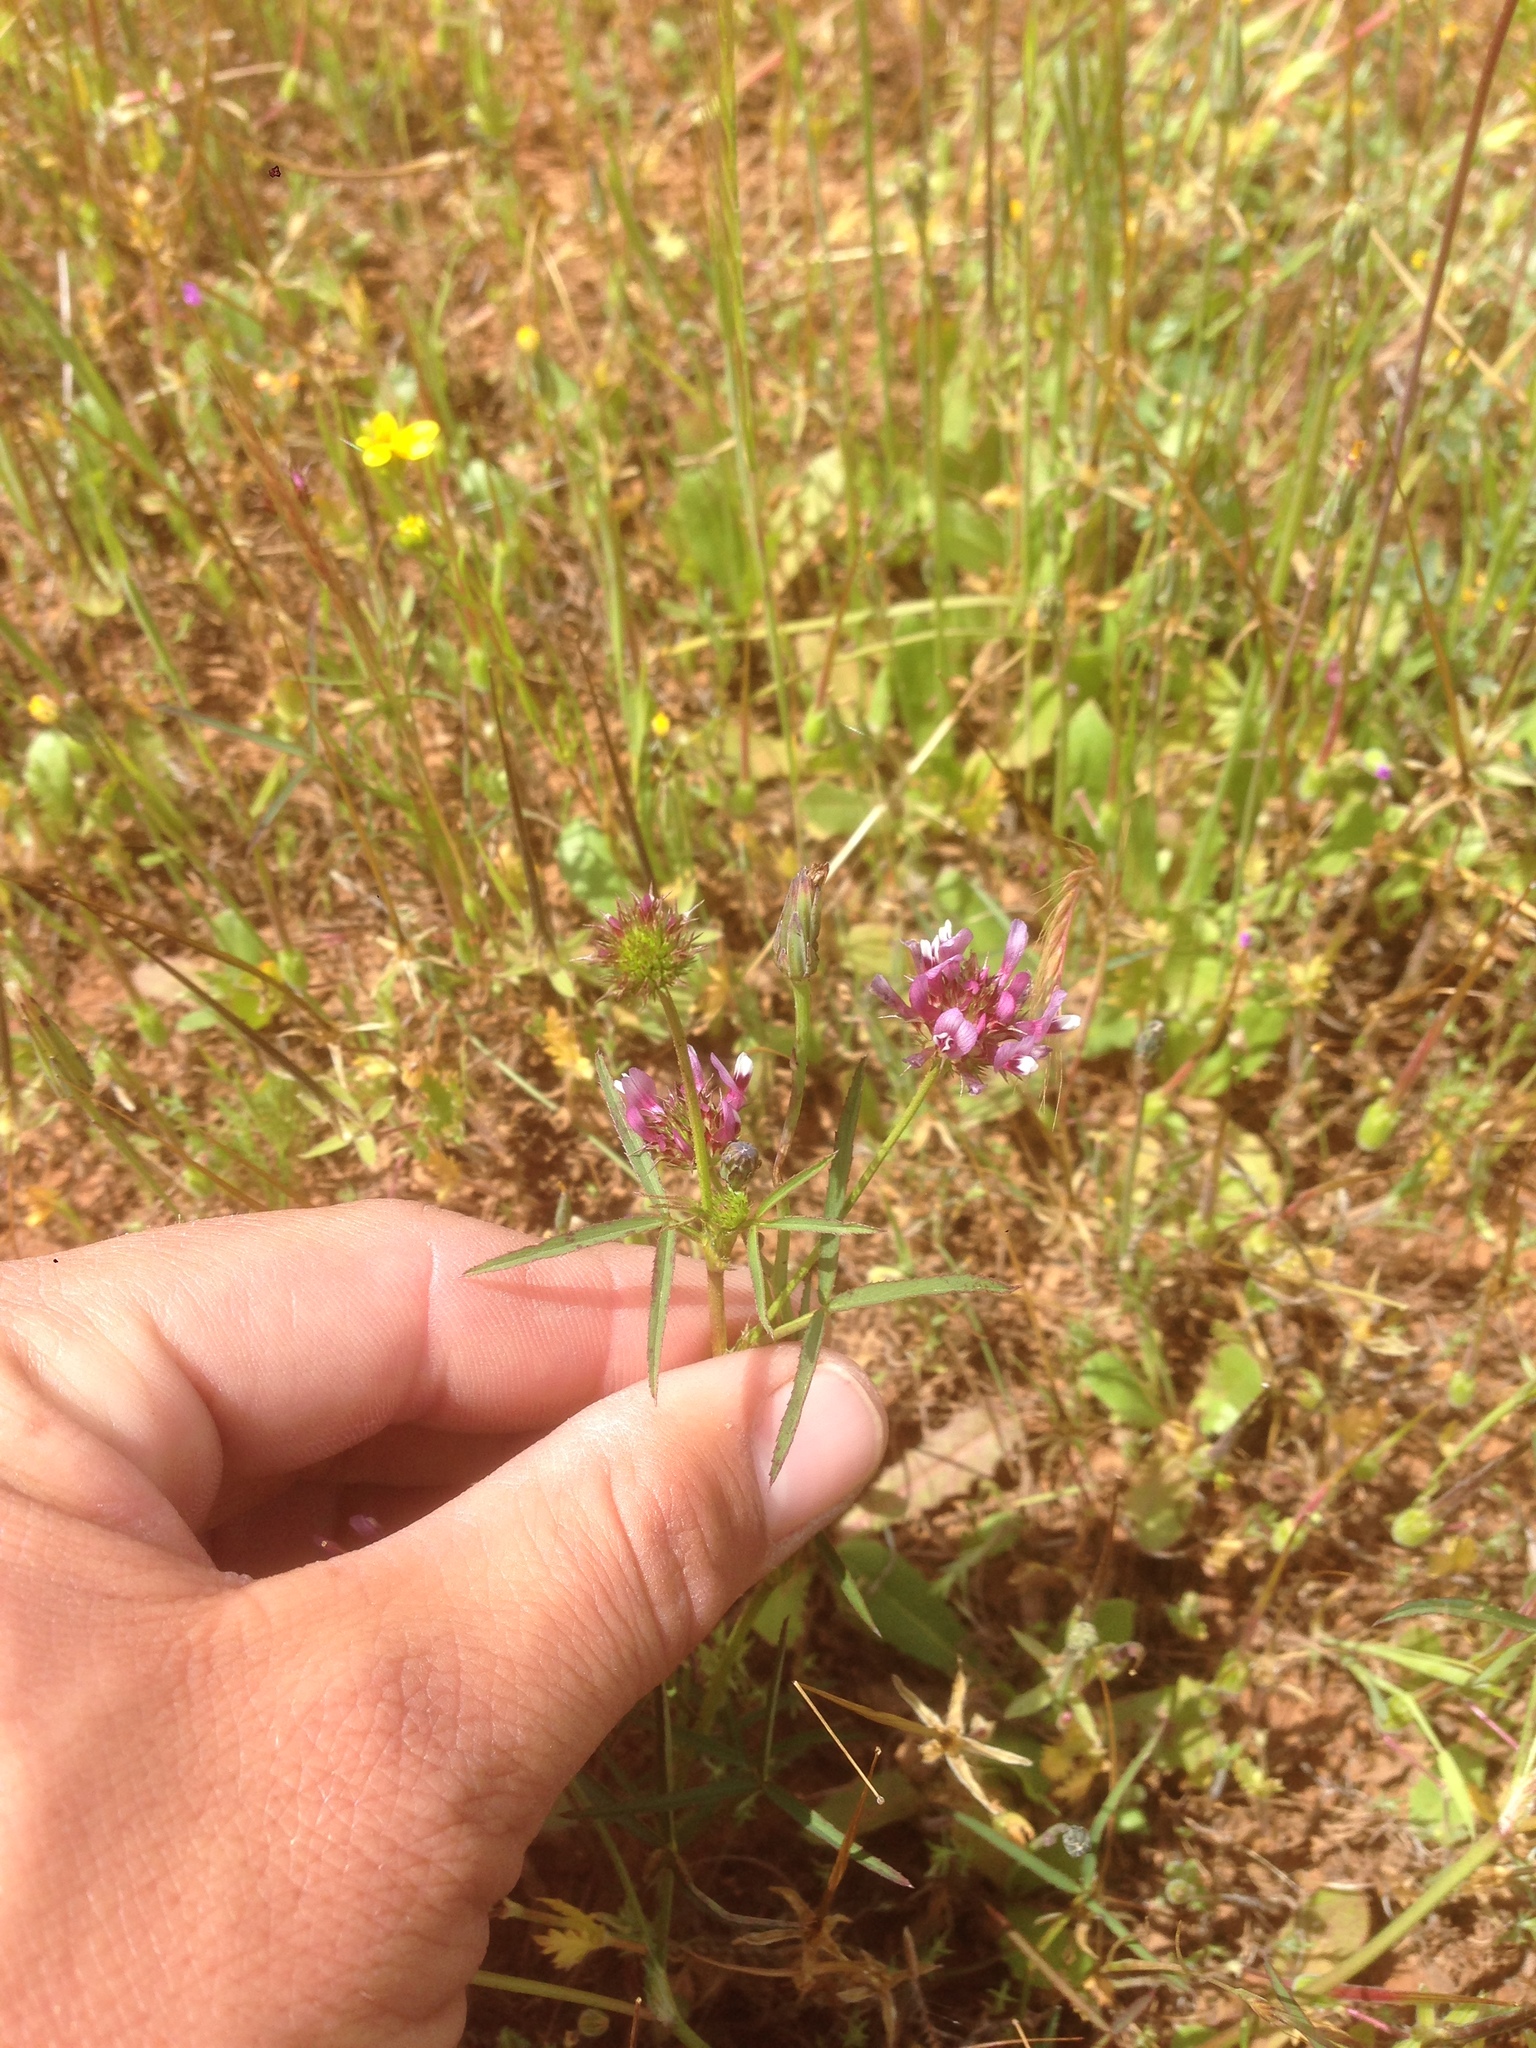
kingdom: Plantae
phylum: Tracheophyta
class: Magnoliopsida
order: Fabales
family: Fabaceae
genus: Trifolium
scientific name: Trifolium willdenovii
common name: Tomcat clover
